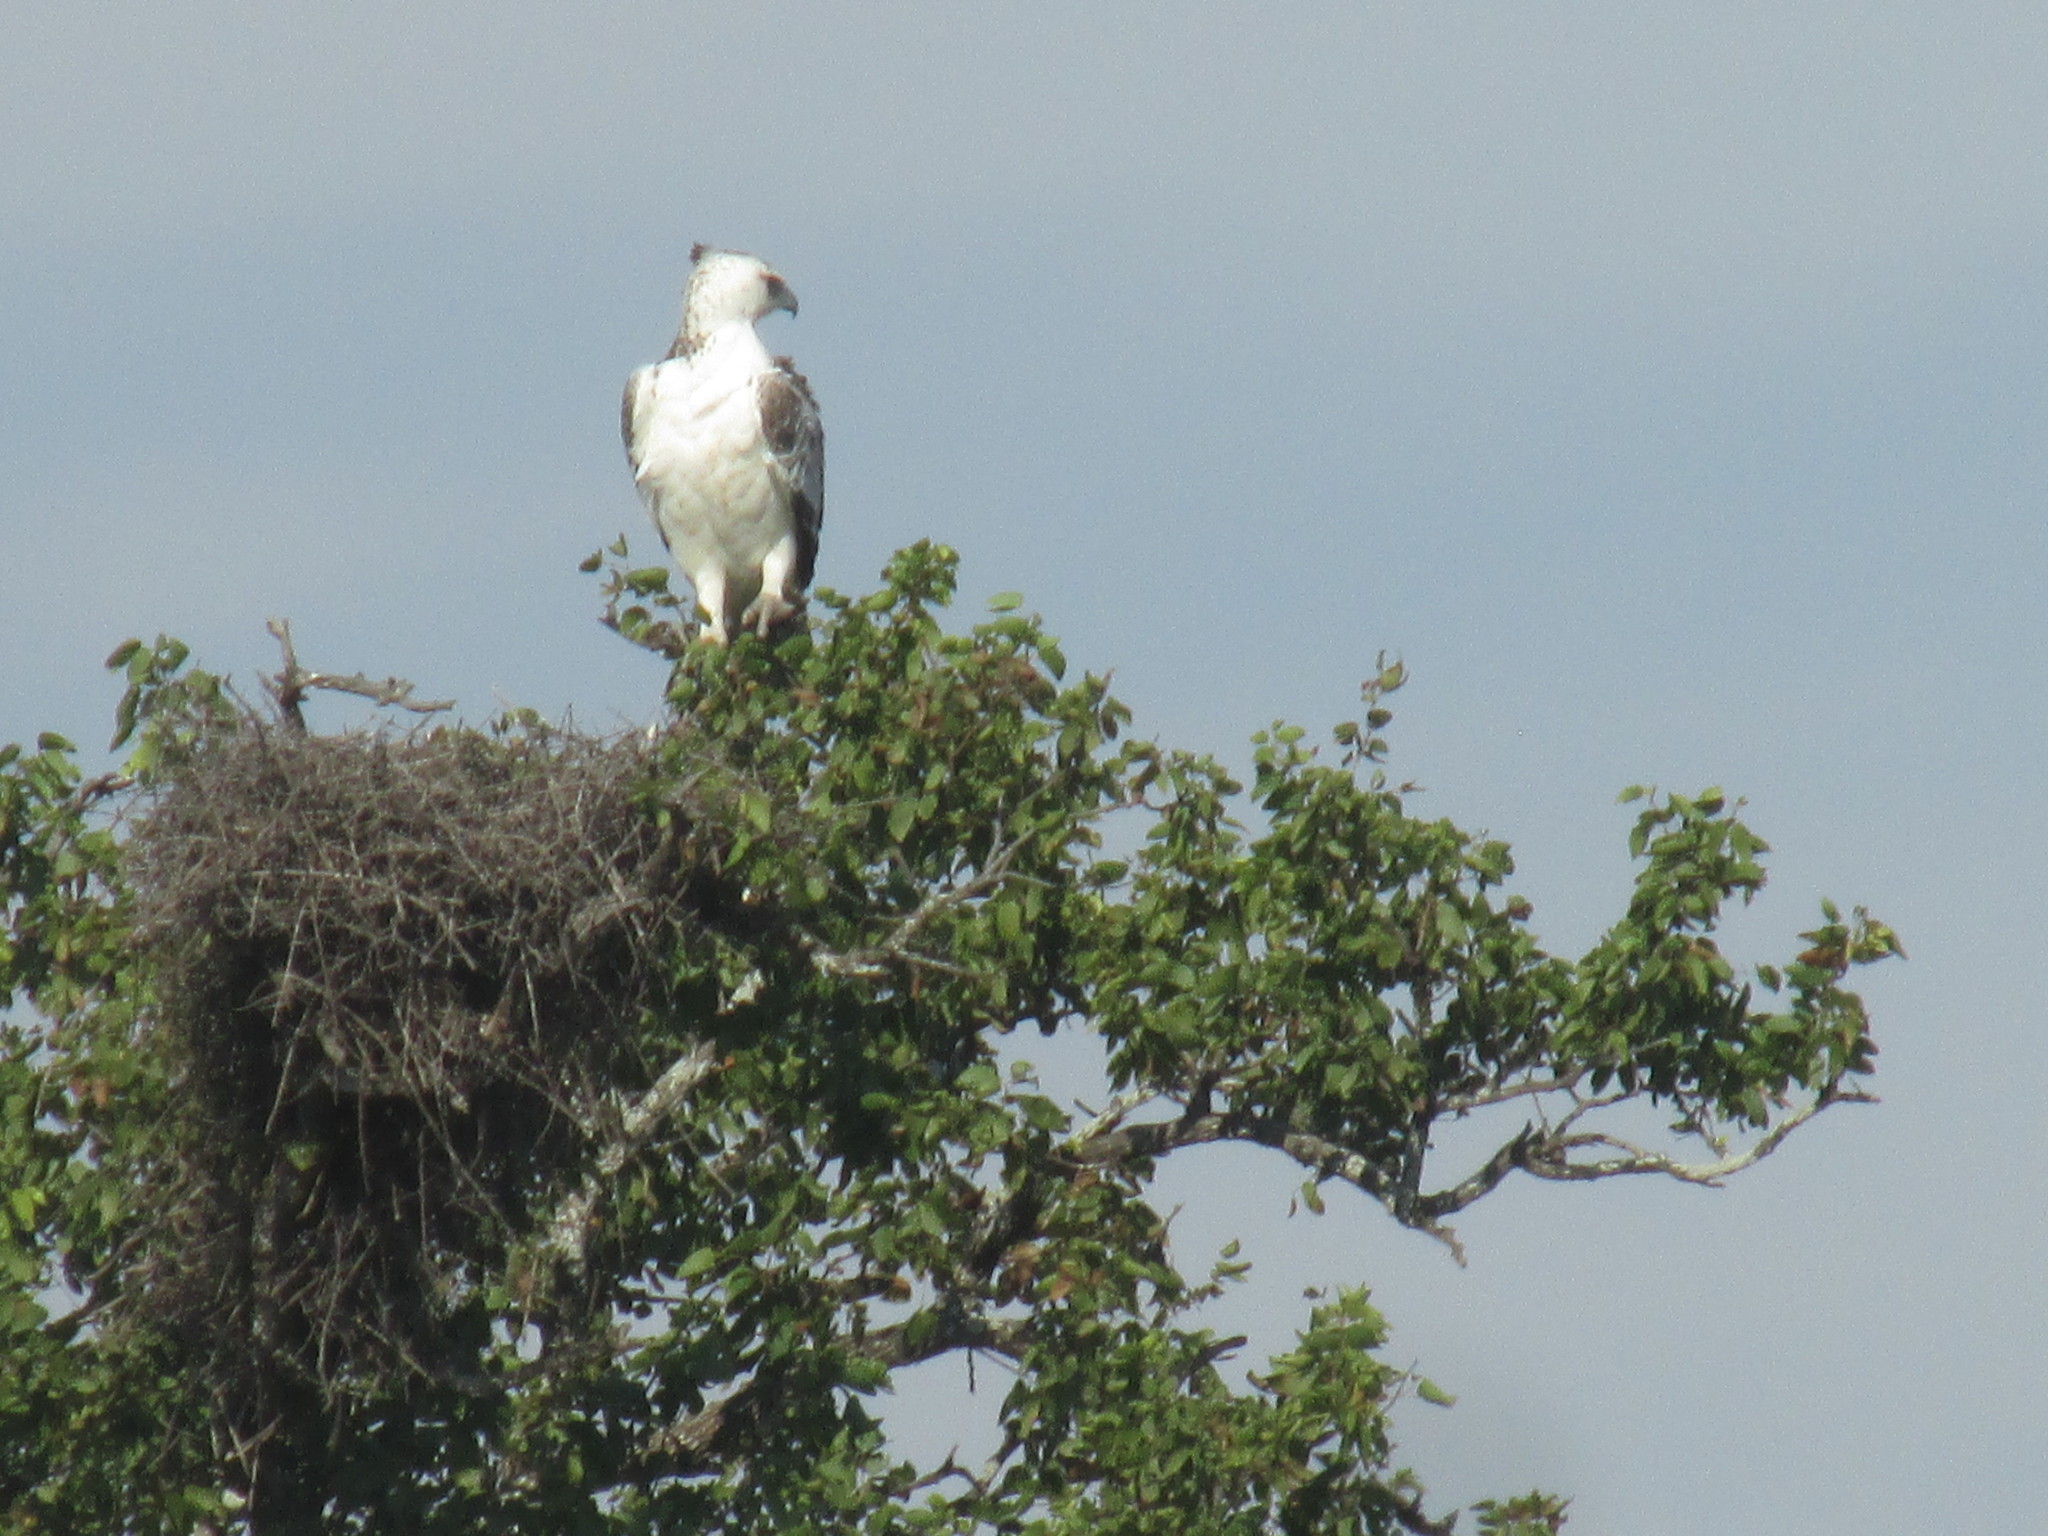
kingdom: Animalia
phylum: Chordata
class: Aves
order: Accipitriformes
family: Accipitridae
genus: Polemaetus
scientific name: Polemaetus bellicosus
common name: Martial eagle
